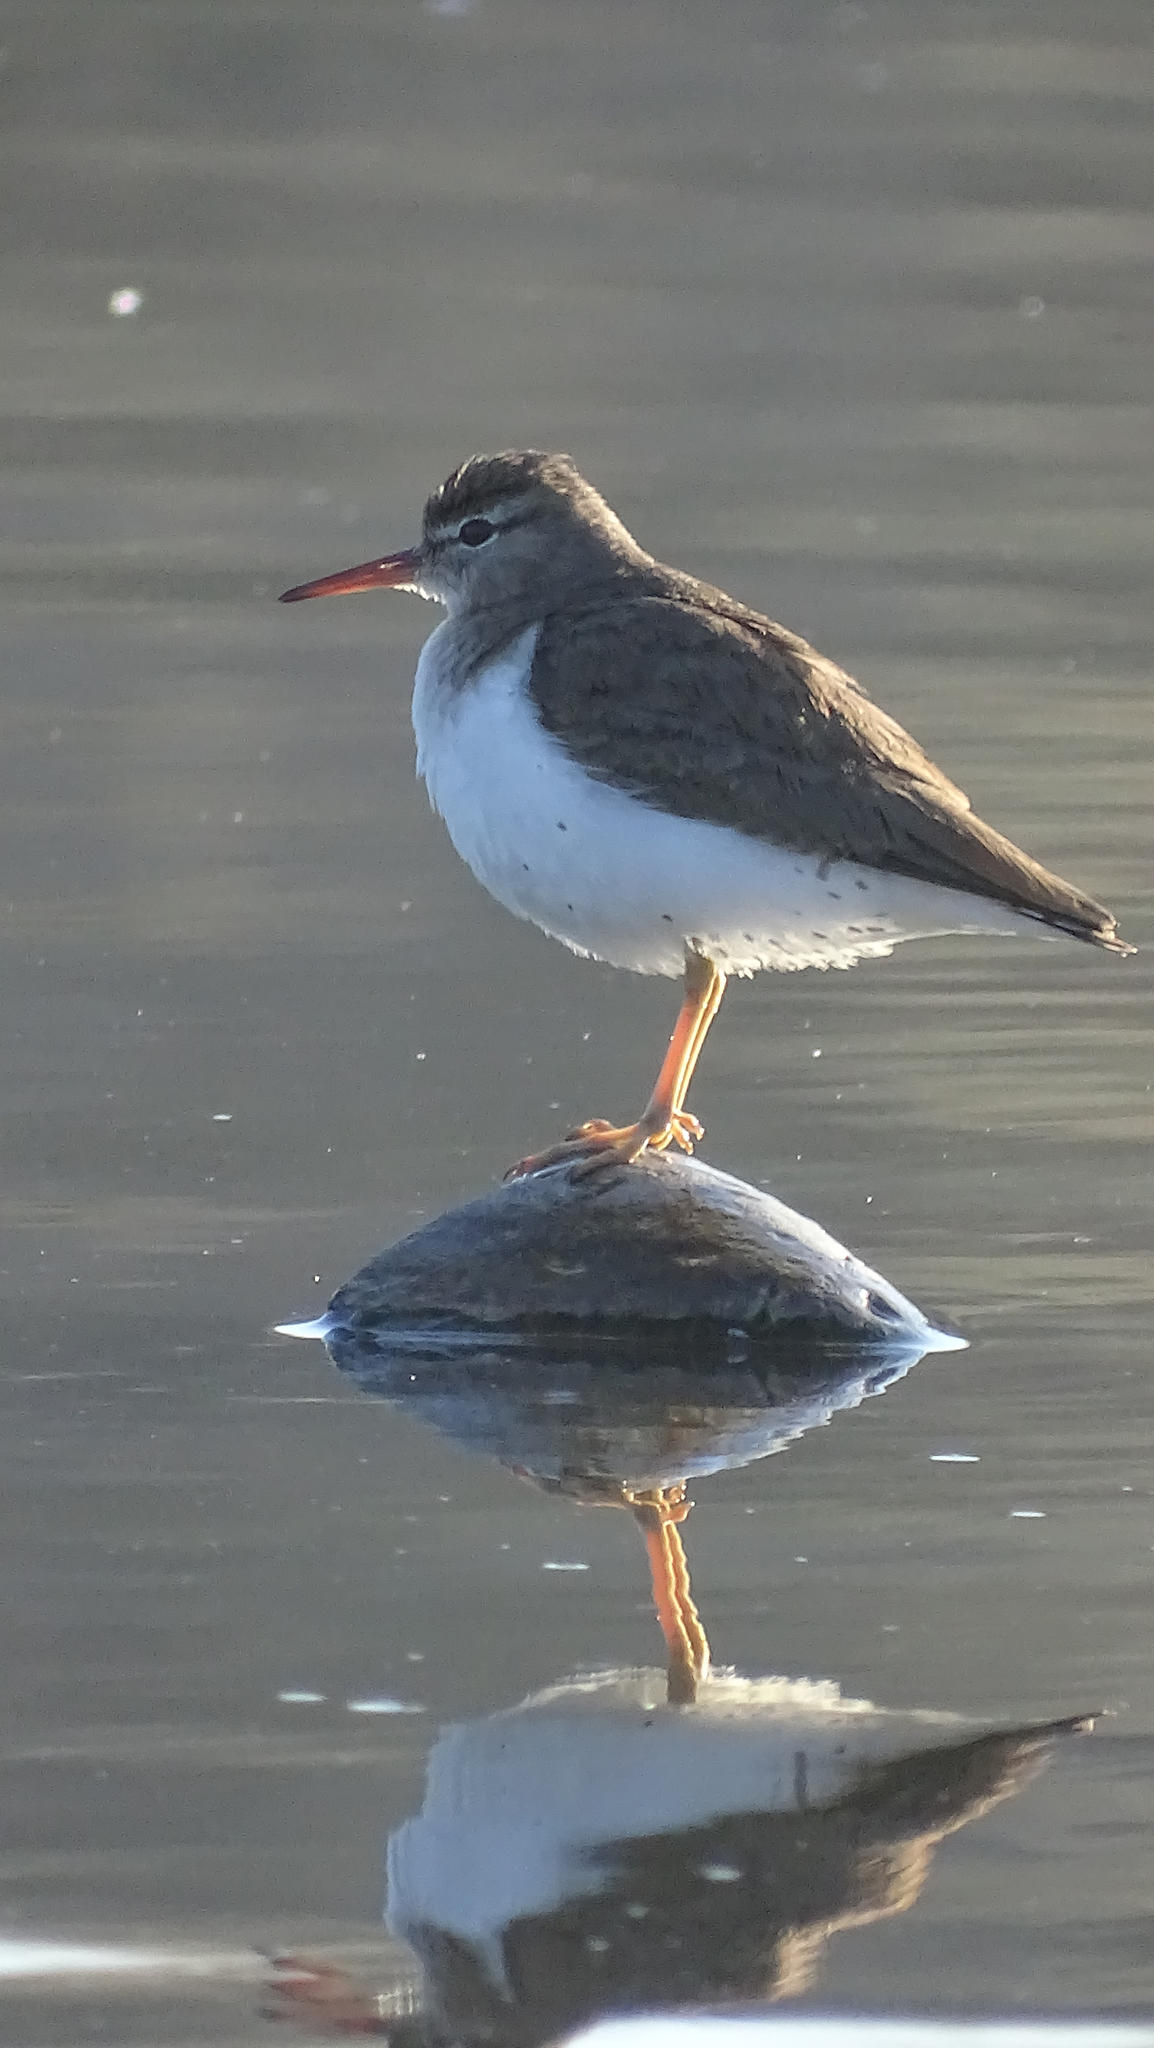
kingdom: Animalia
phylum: Chordata
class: Aves
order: Charadriiformes
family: Scolopacidae
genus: Actitis
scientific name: Actitis macularius
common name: Spotted sandpiper
